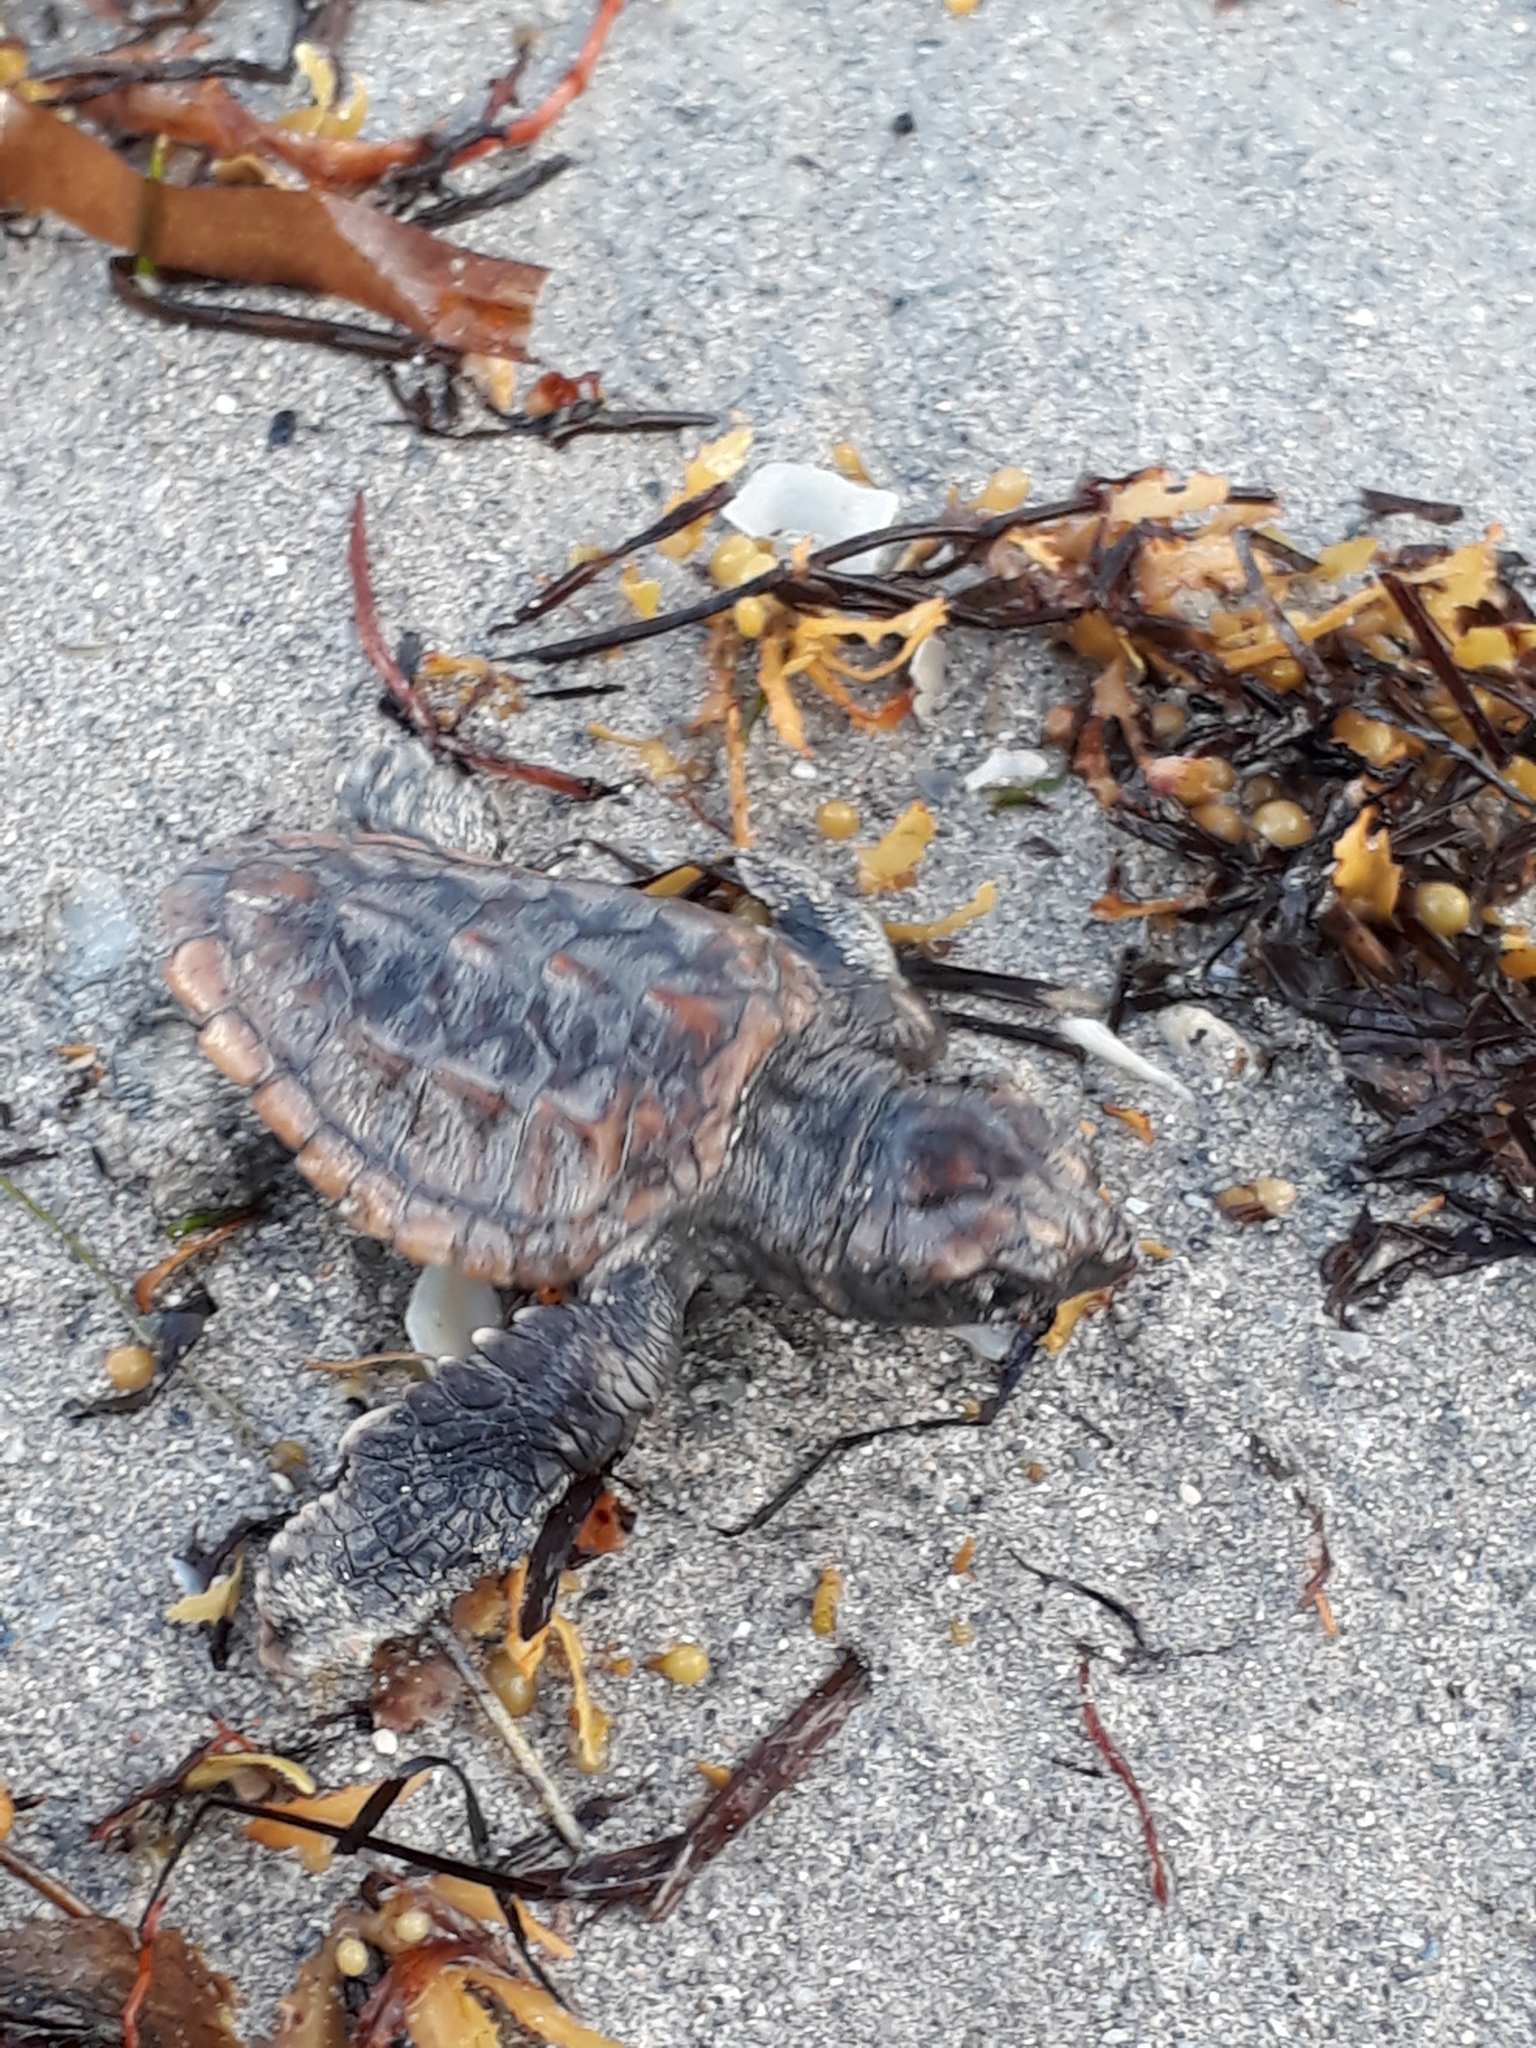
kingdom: Animalia
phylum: Chordata
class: Testudines
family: Cheloniidae
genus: Caretta
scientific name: Caretta caretta
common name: Loggerhead sea turtle
